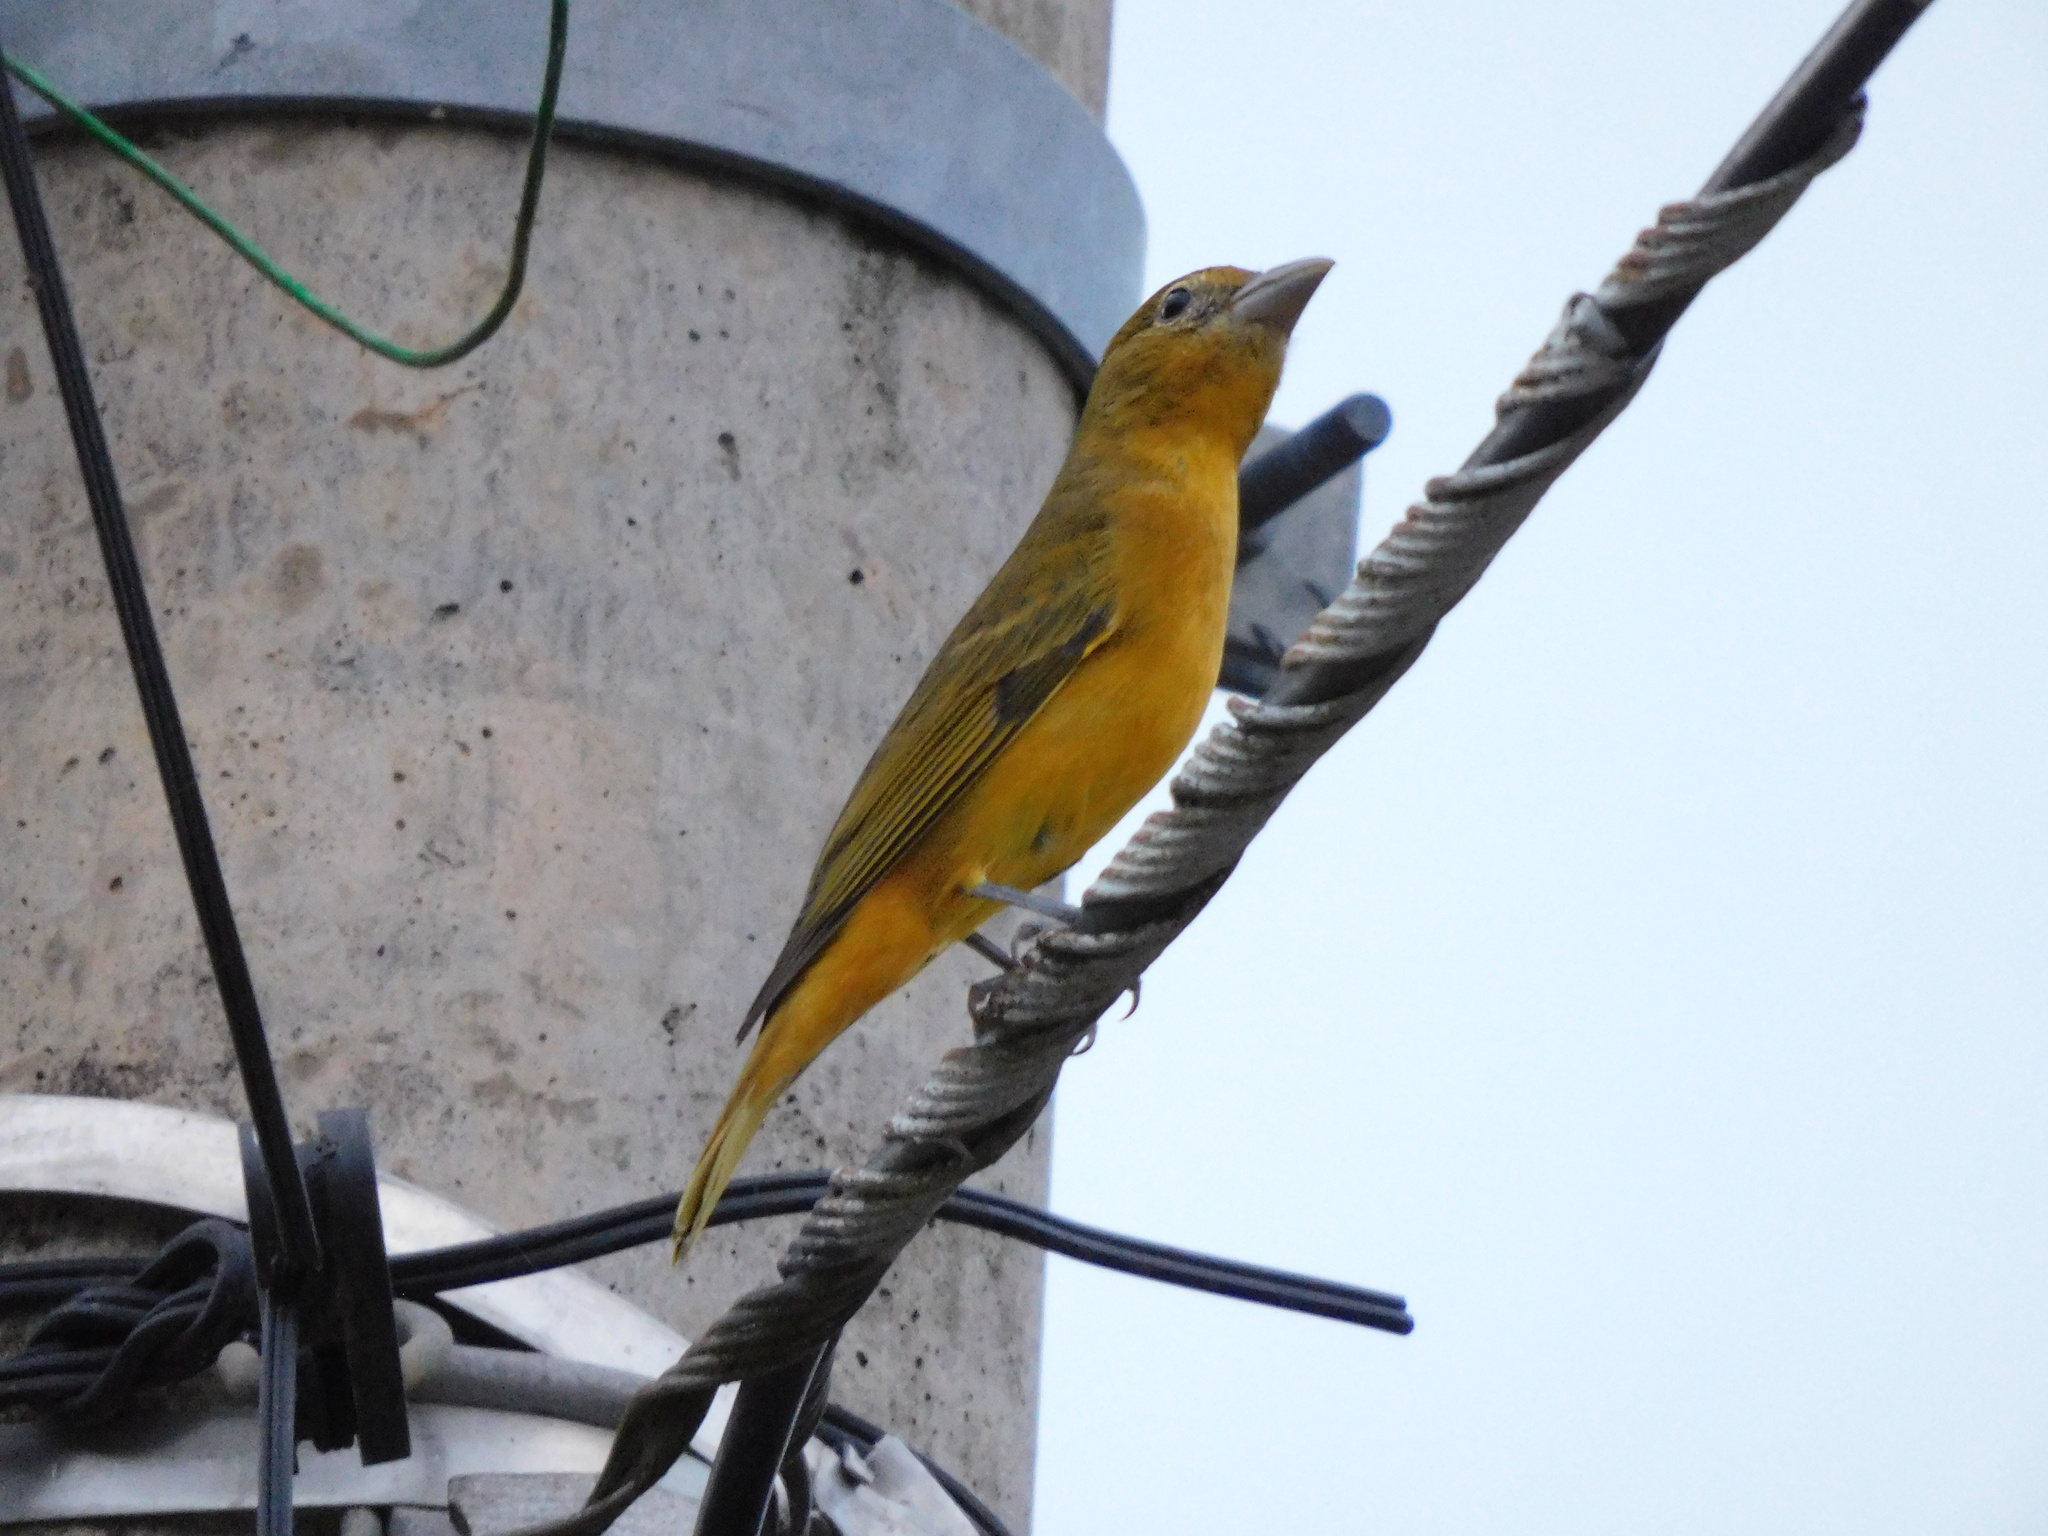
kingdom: Animalia
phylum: Chordata
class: Aves
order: Passeriformes
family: Cardinalidae
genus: Piranga
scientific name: Piranga rubra
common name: Summer tanager
